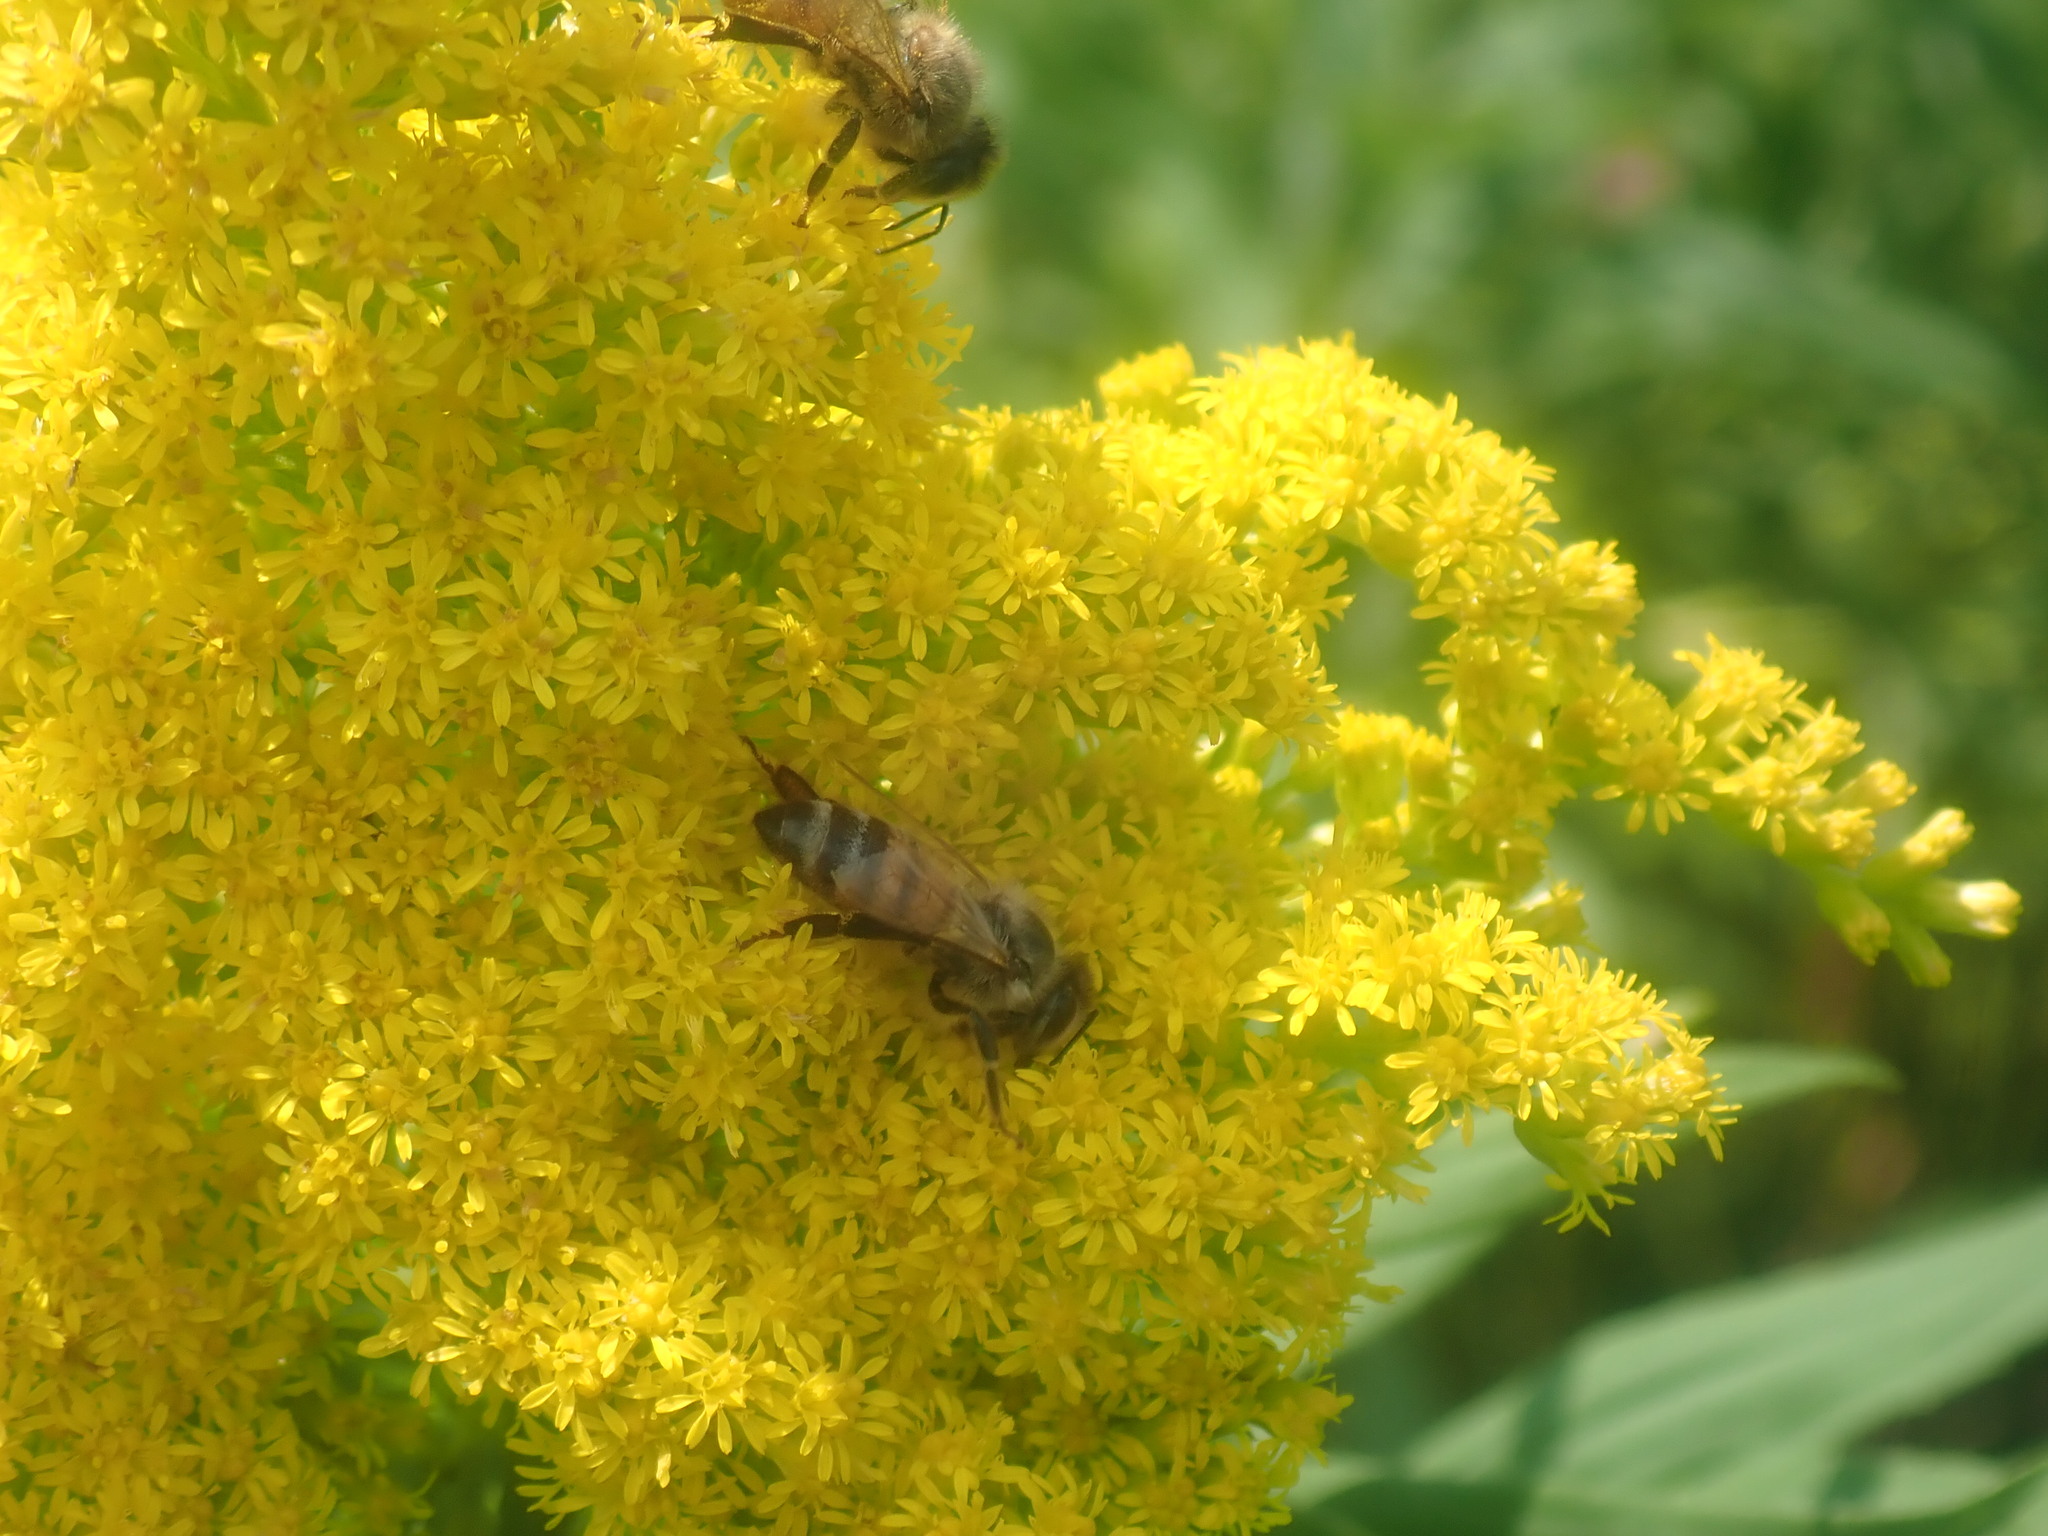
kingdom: Animalia
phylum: Arthropoda
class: Insecta
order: Hymenoptera
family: Apidae
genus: Apis
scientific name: Apis mellifera
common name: Honey bee
